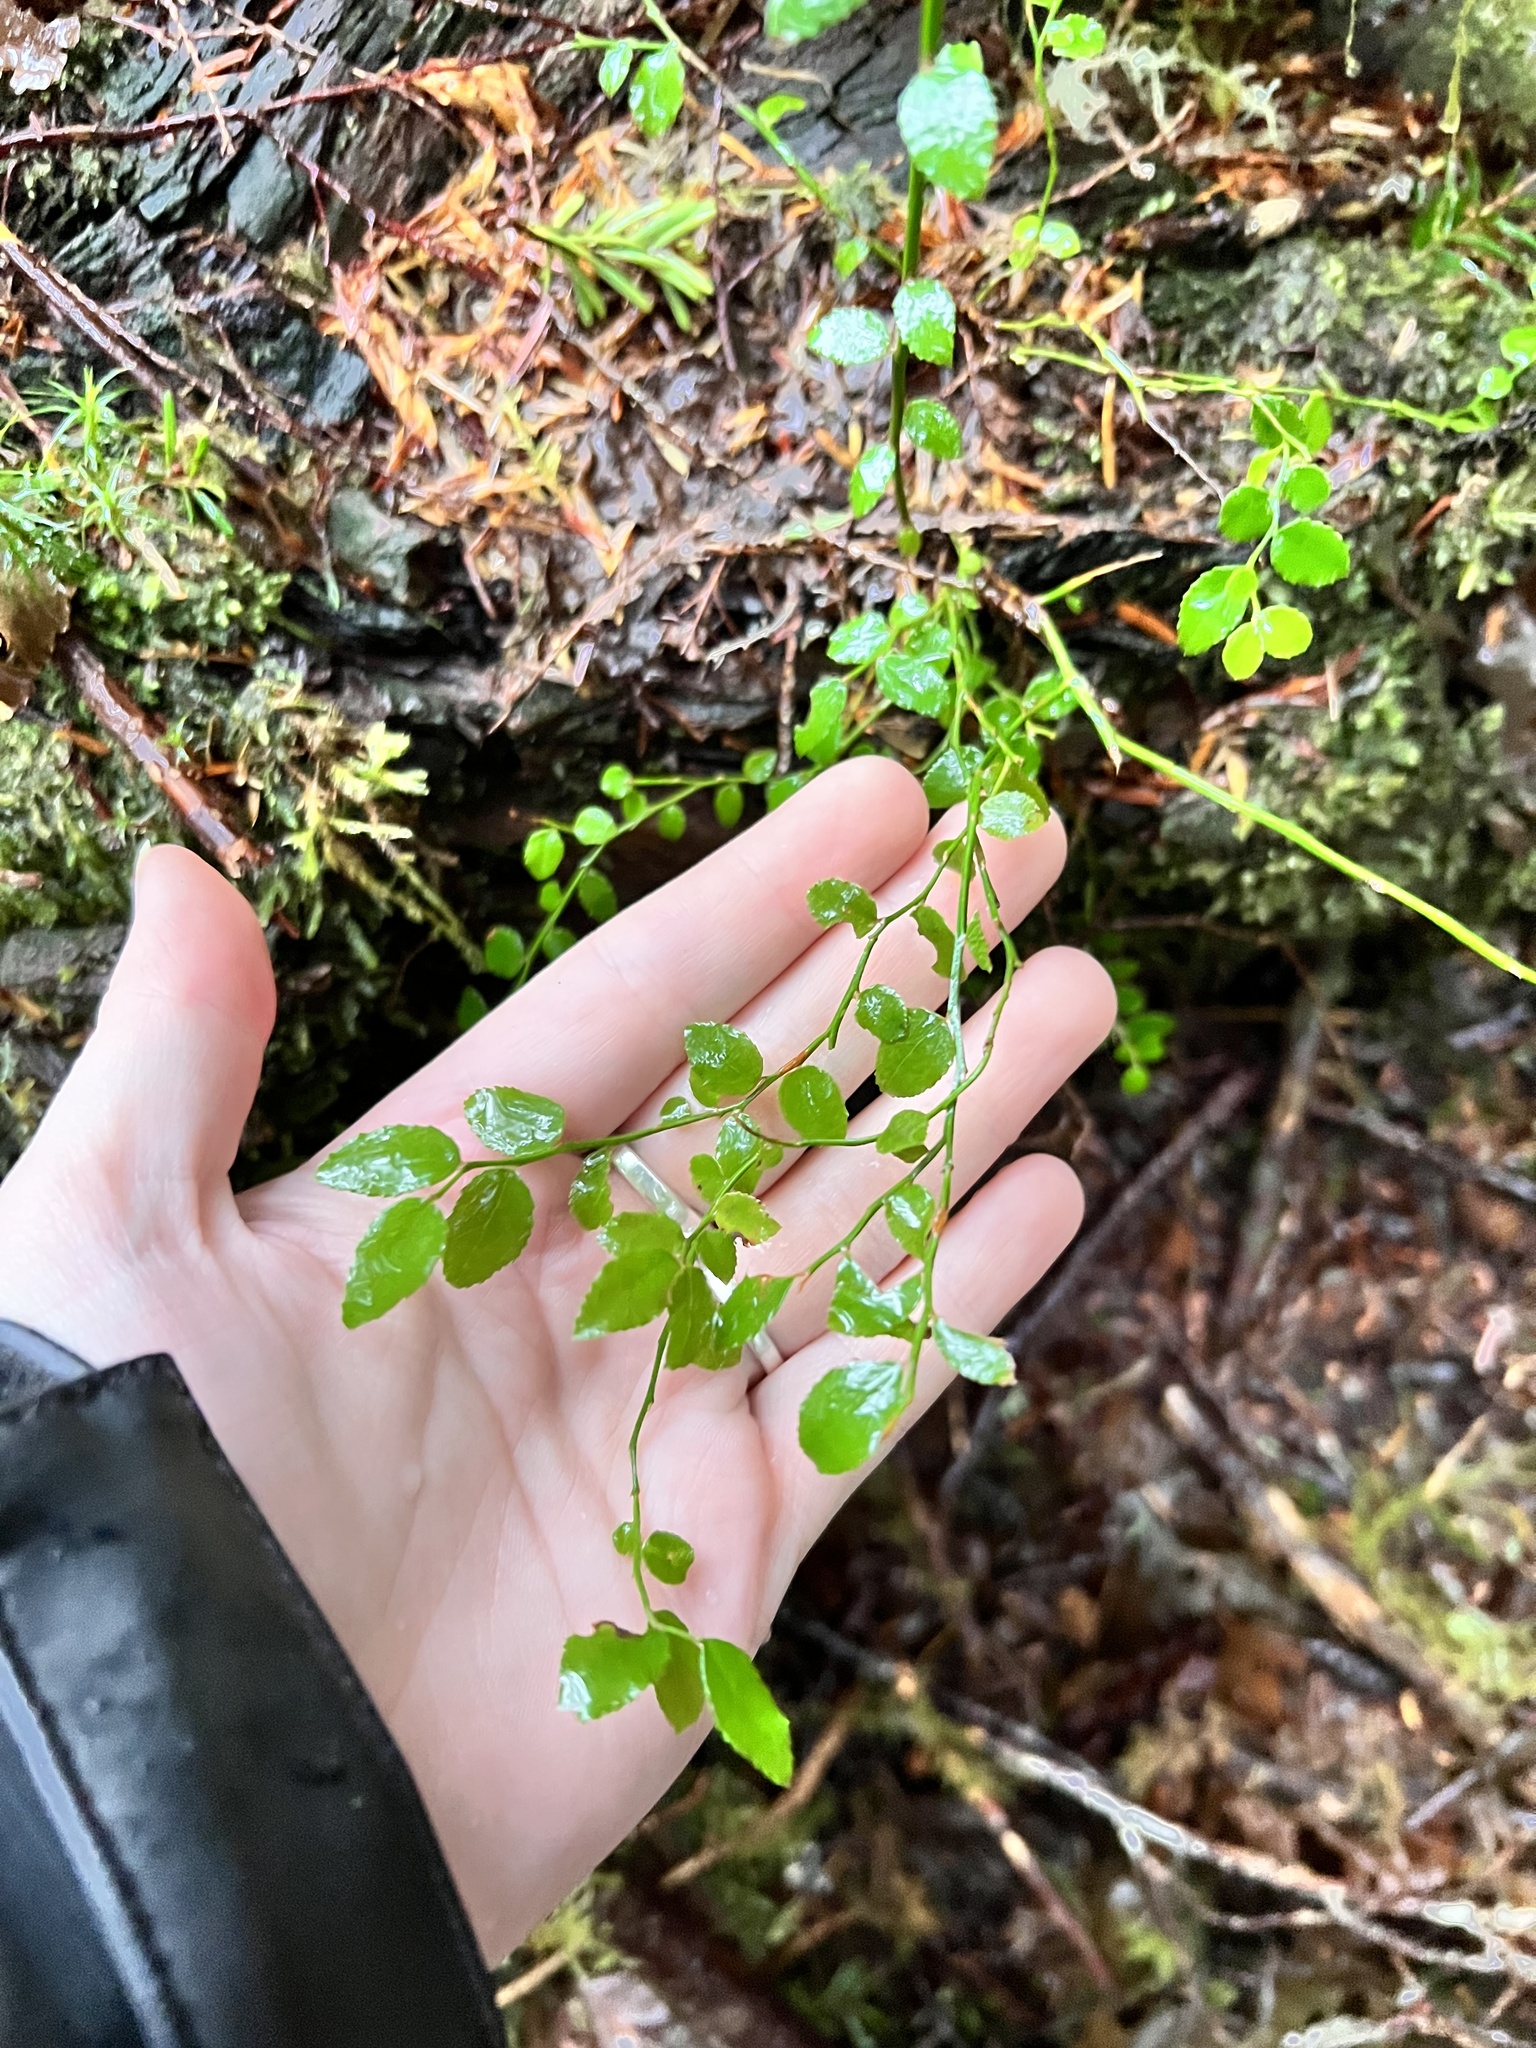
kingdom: Plantae
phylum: Tracheophyta
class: Magnoliopsida
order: Ericales
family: Ericaceae
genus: Vaccinium
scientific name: Vaccinium parvifolium
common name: Red-huckleberry
